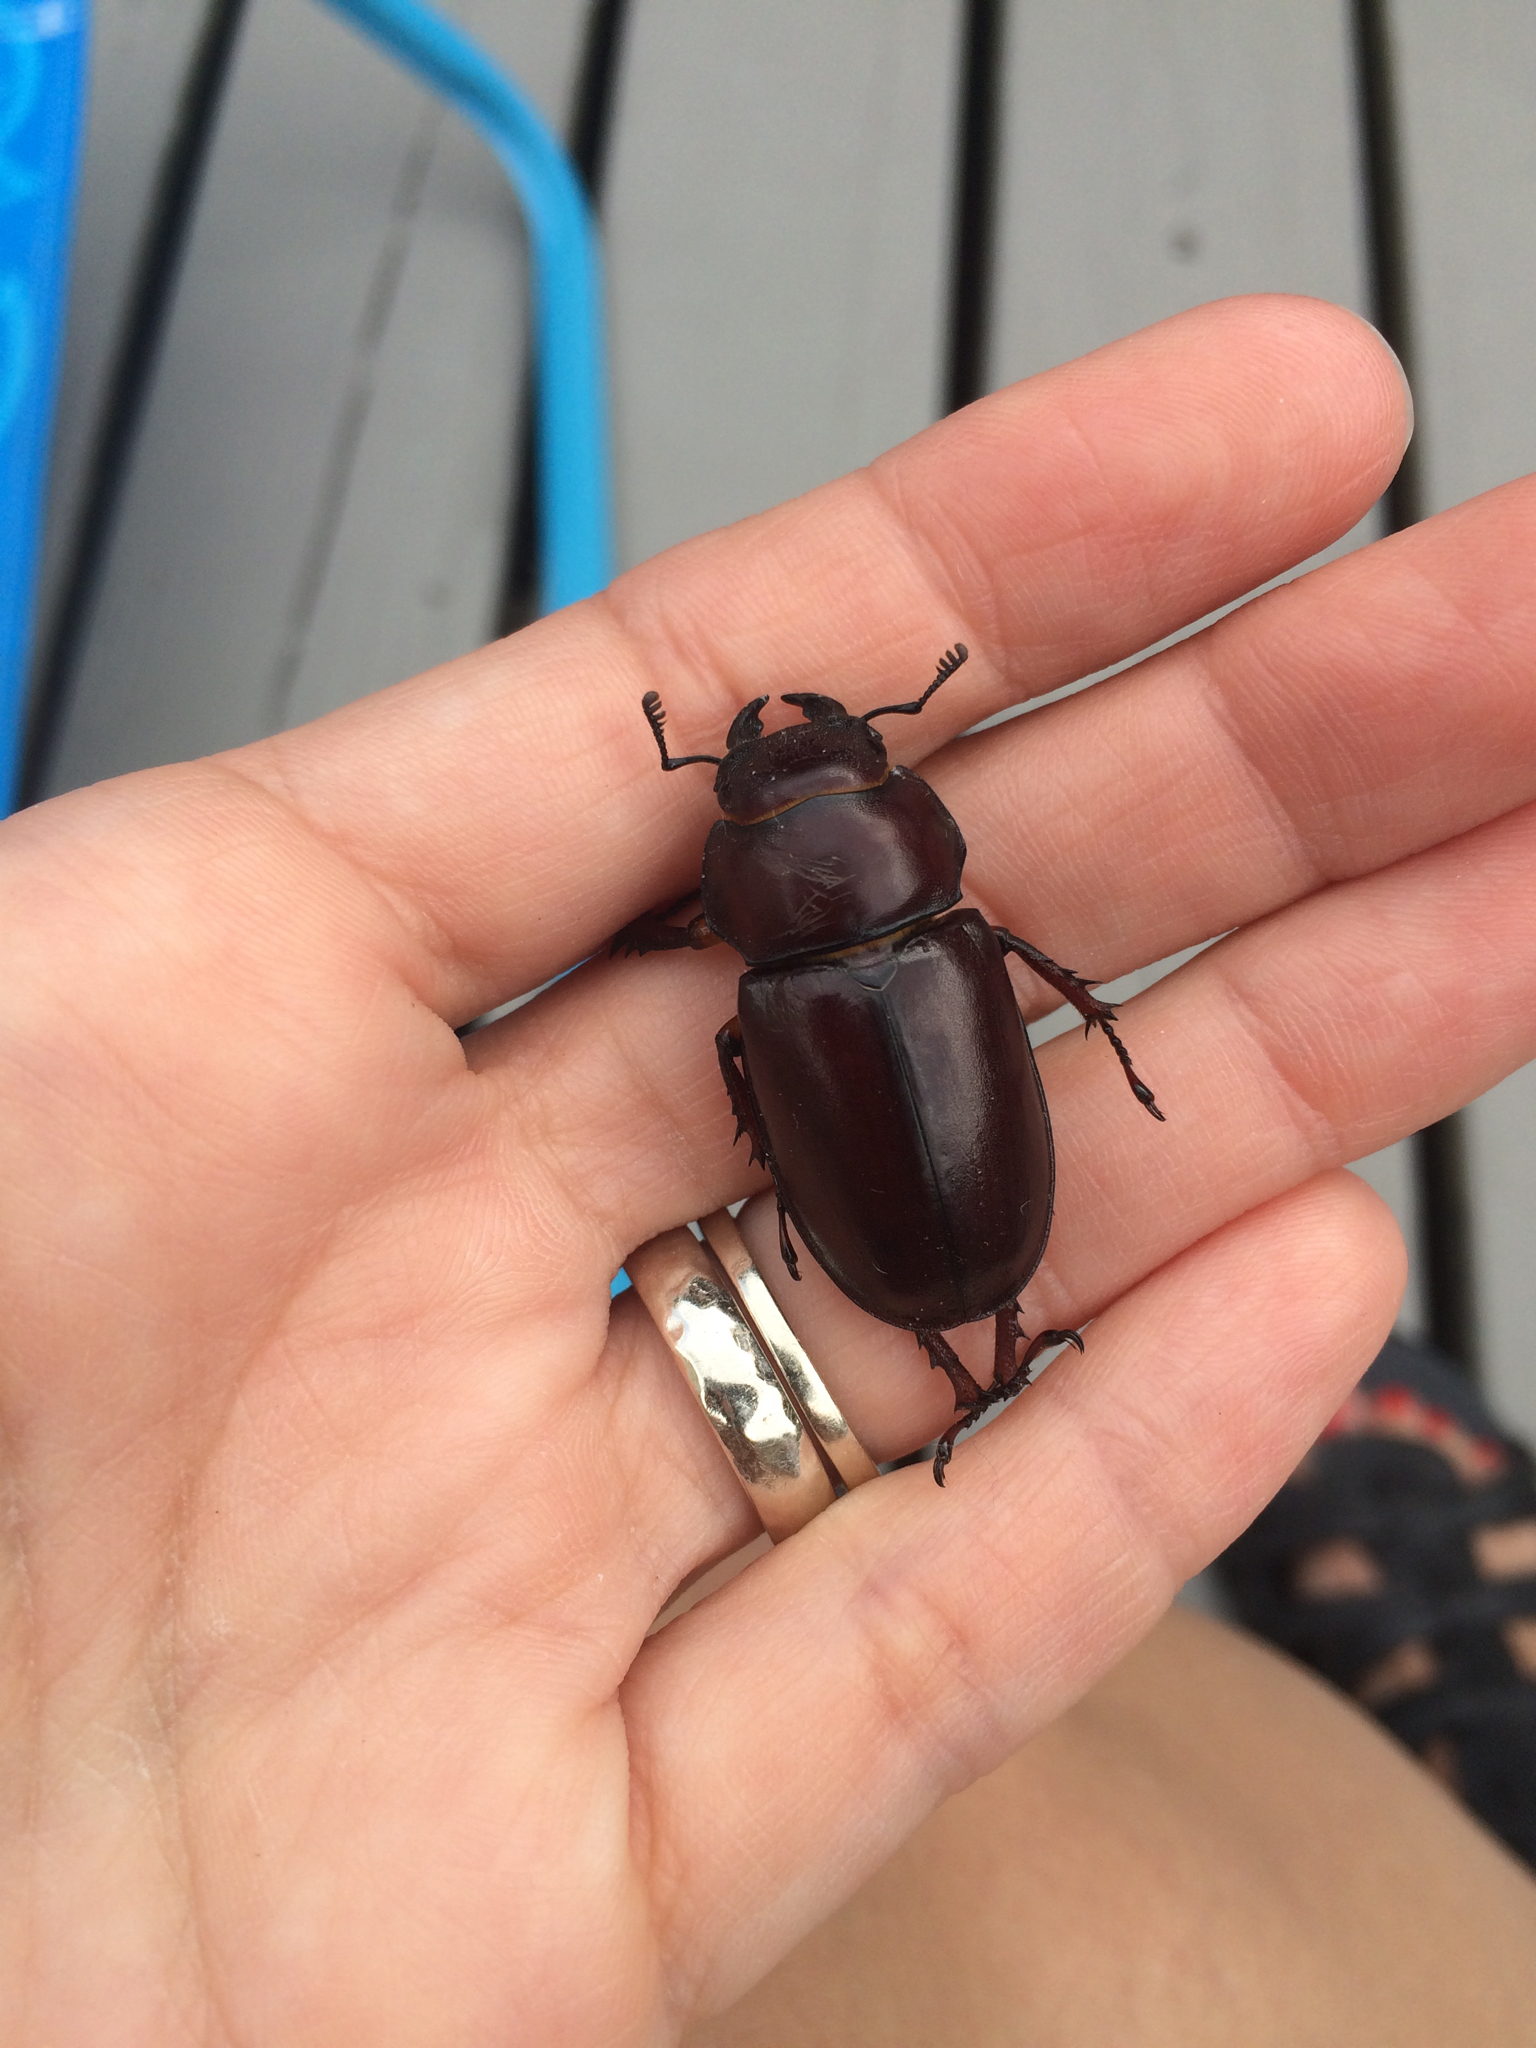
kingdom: Animalia
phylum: Arthropoda
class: Insecta
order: Coleoptera
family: Lucanidae
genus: Lucanus
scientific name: Lucanus capreolus
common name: Stag beetle
